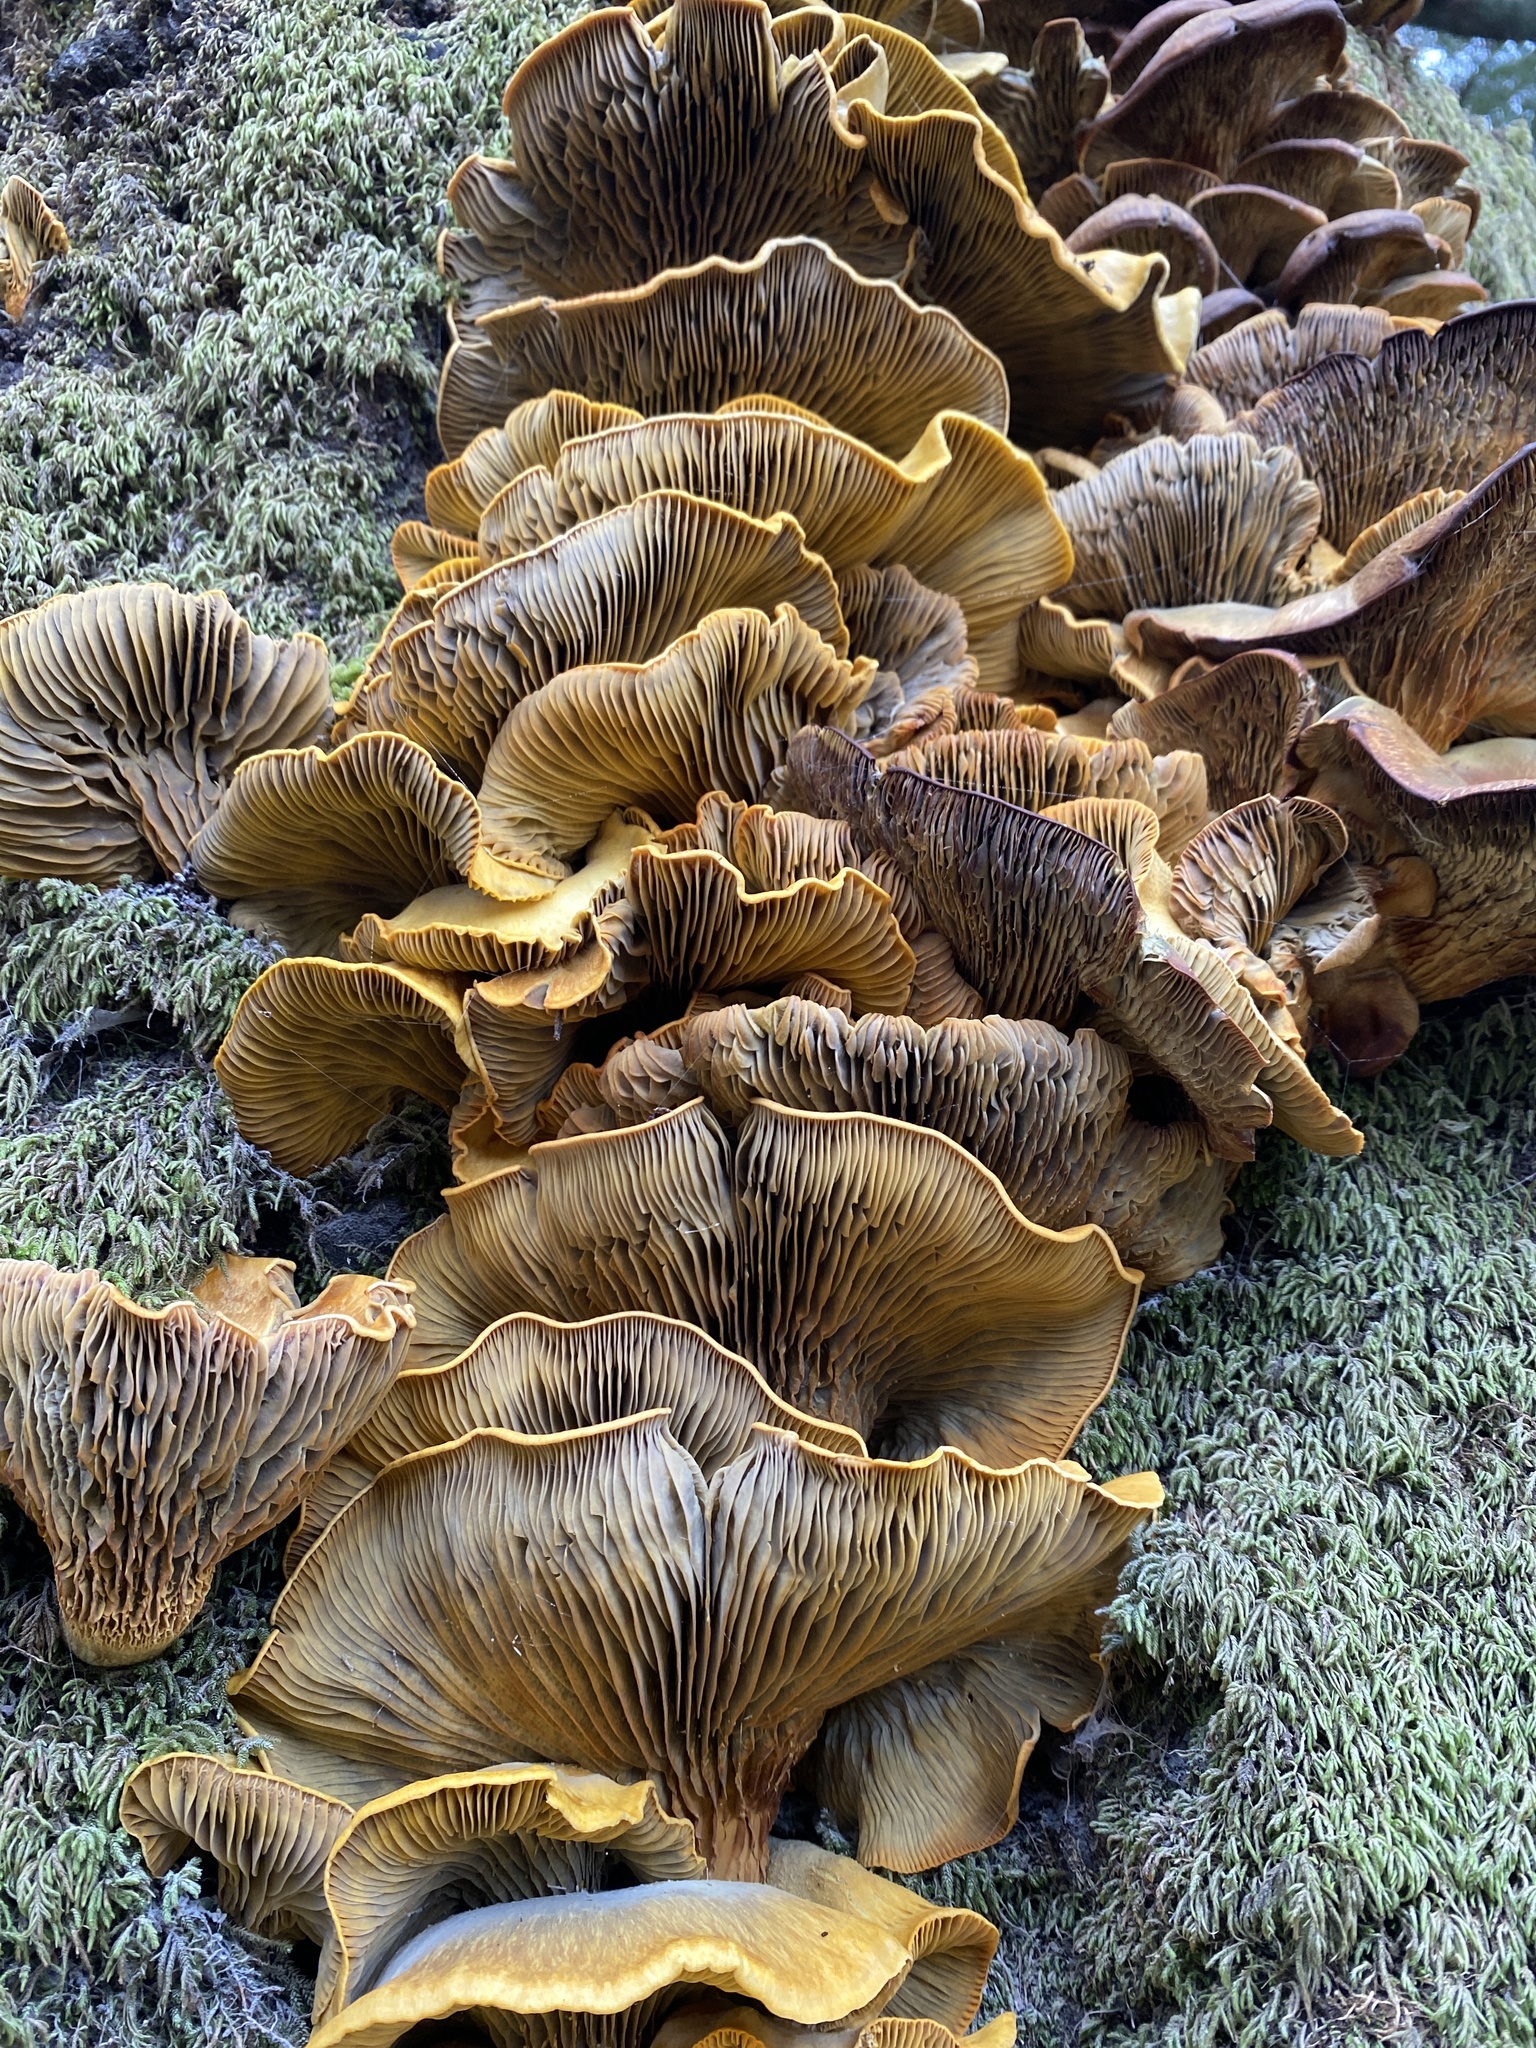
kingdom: Fungi
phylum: Basidiomycota
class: Agaricomycetes
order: Agaricales
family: Omphalotaceae
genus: Omphalotus
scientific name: Omphalotus olivascens
